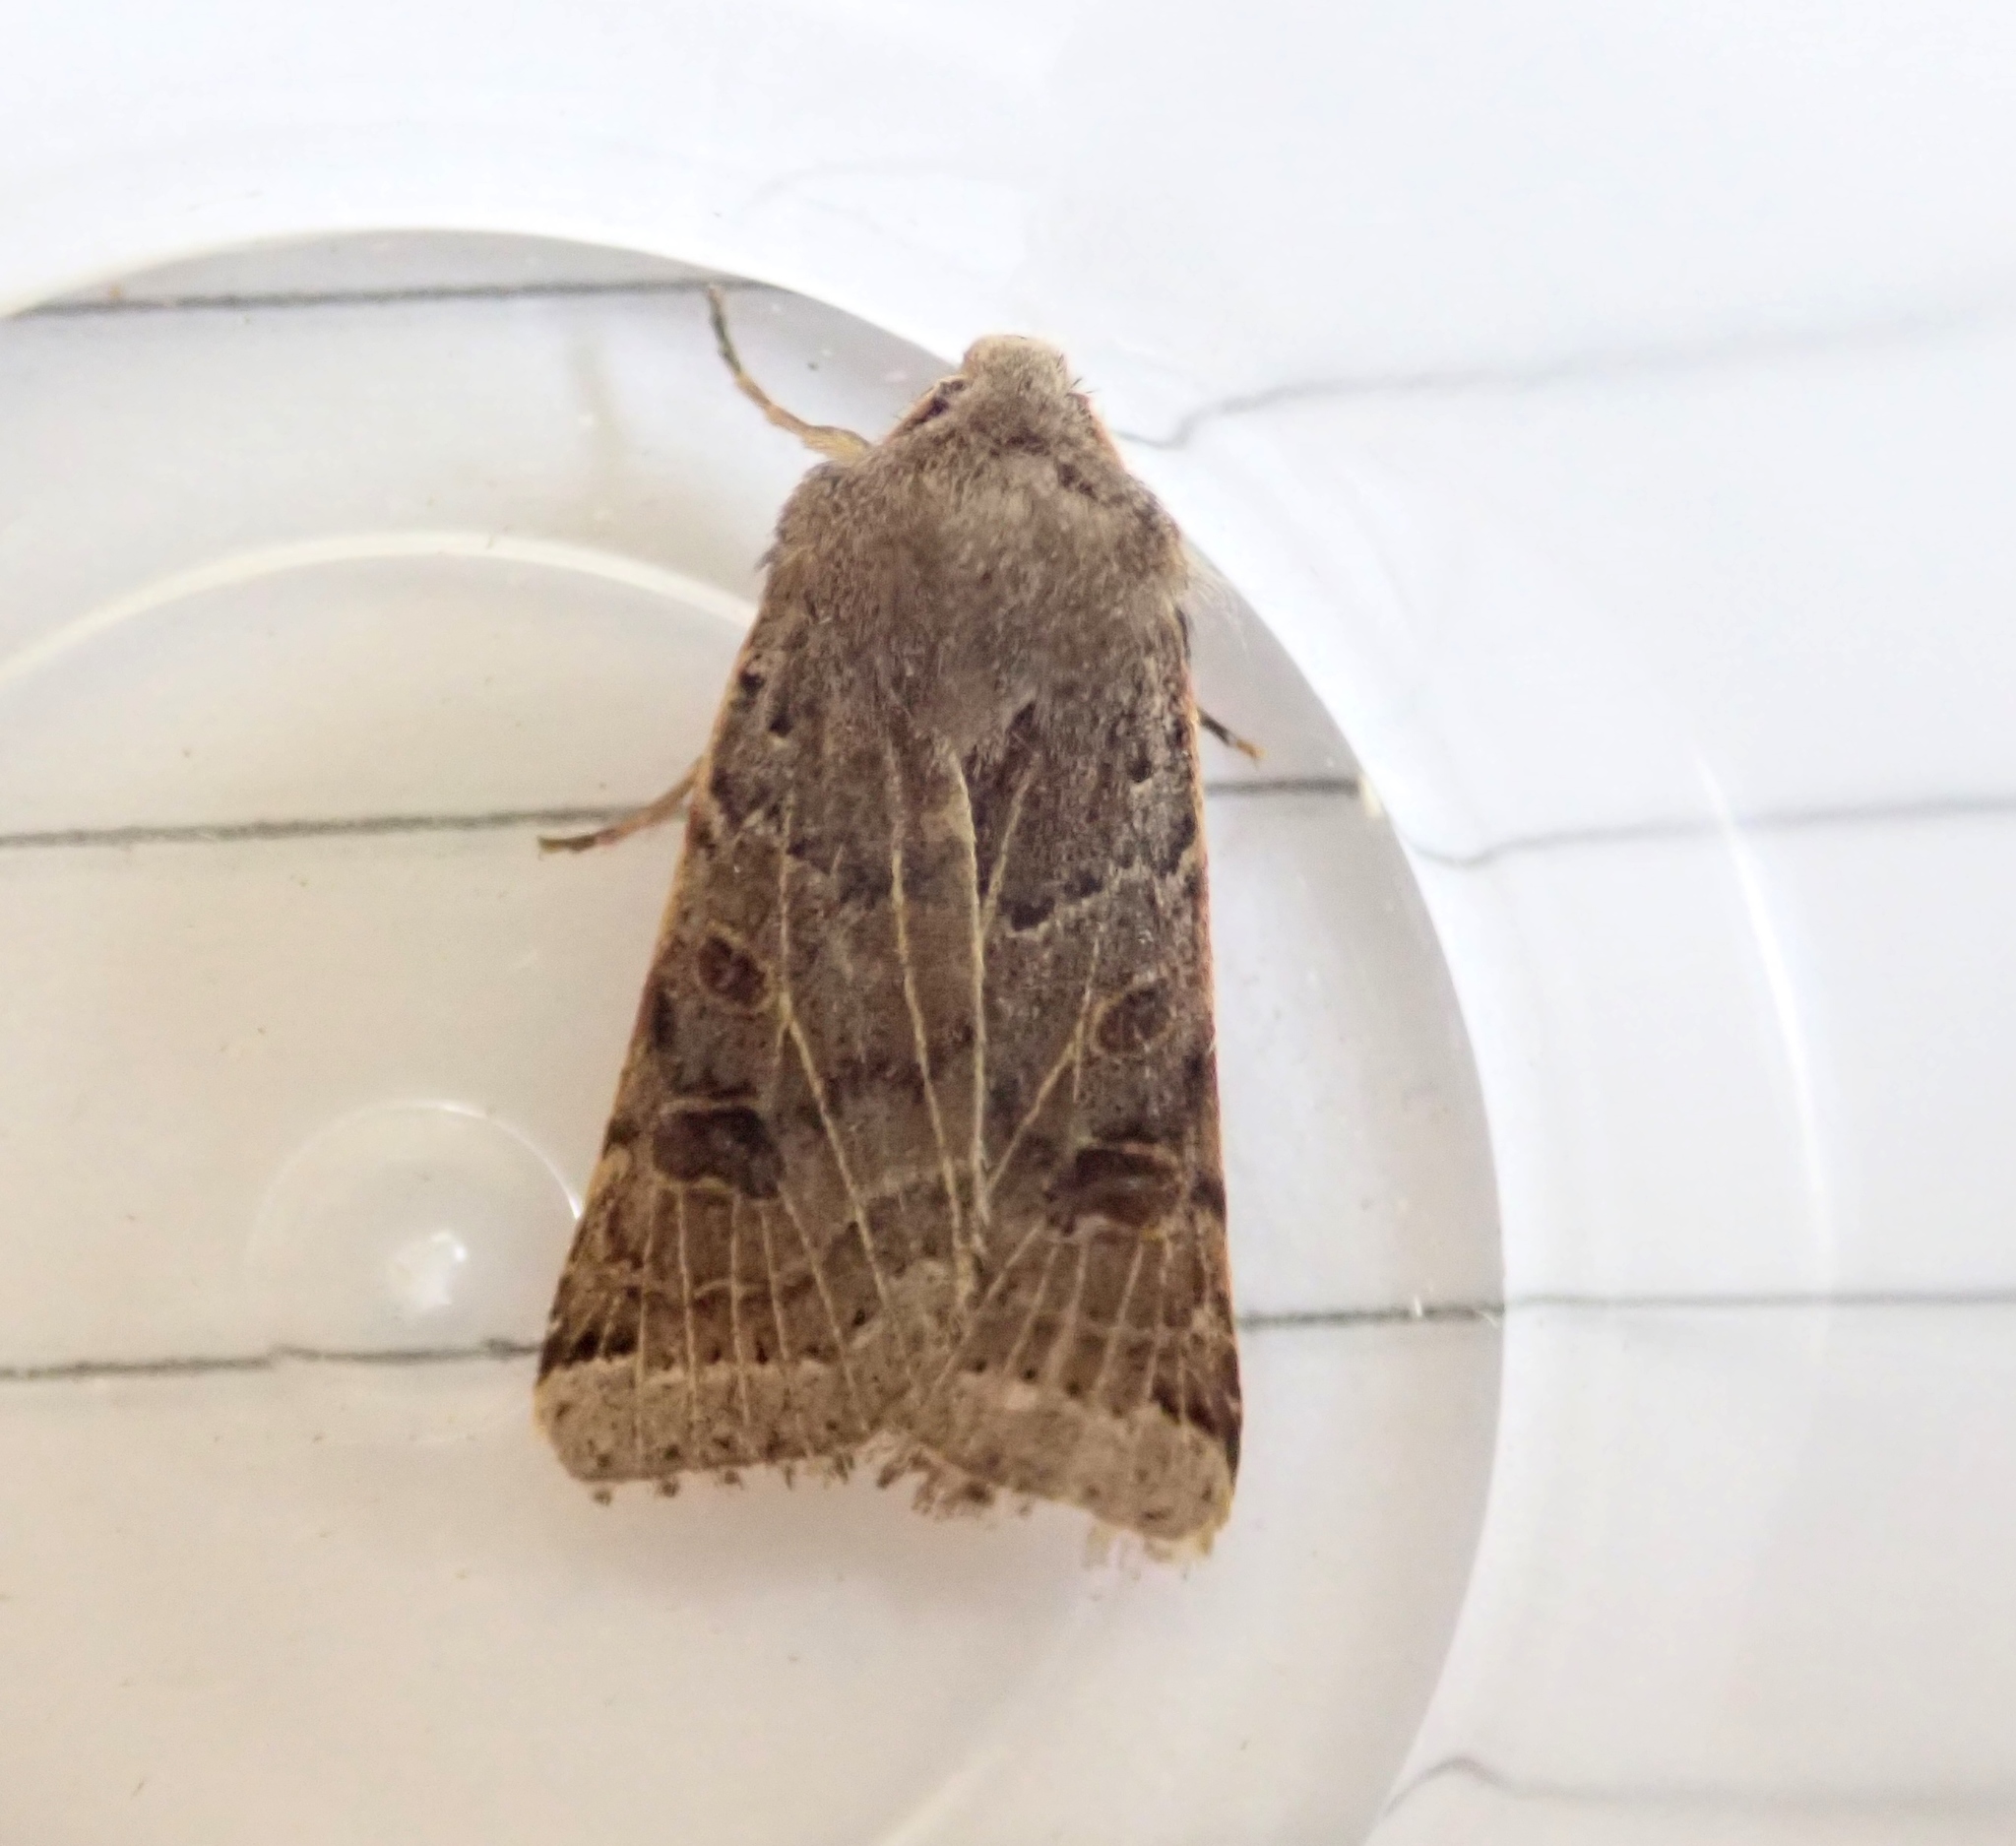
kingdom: Animalia
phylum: Arthropoda
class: Insecta
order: Lepidoptera
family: Noctuidae
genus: Agrochola
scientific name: Agrochola lunosa
